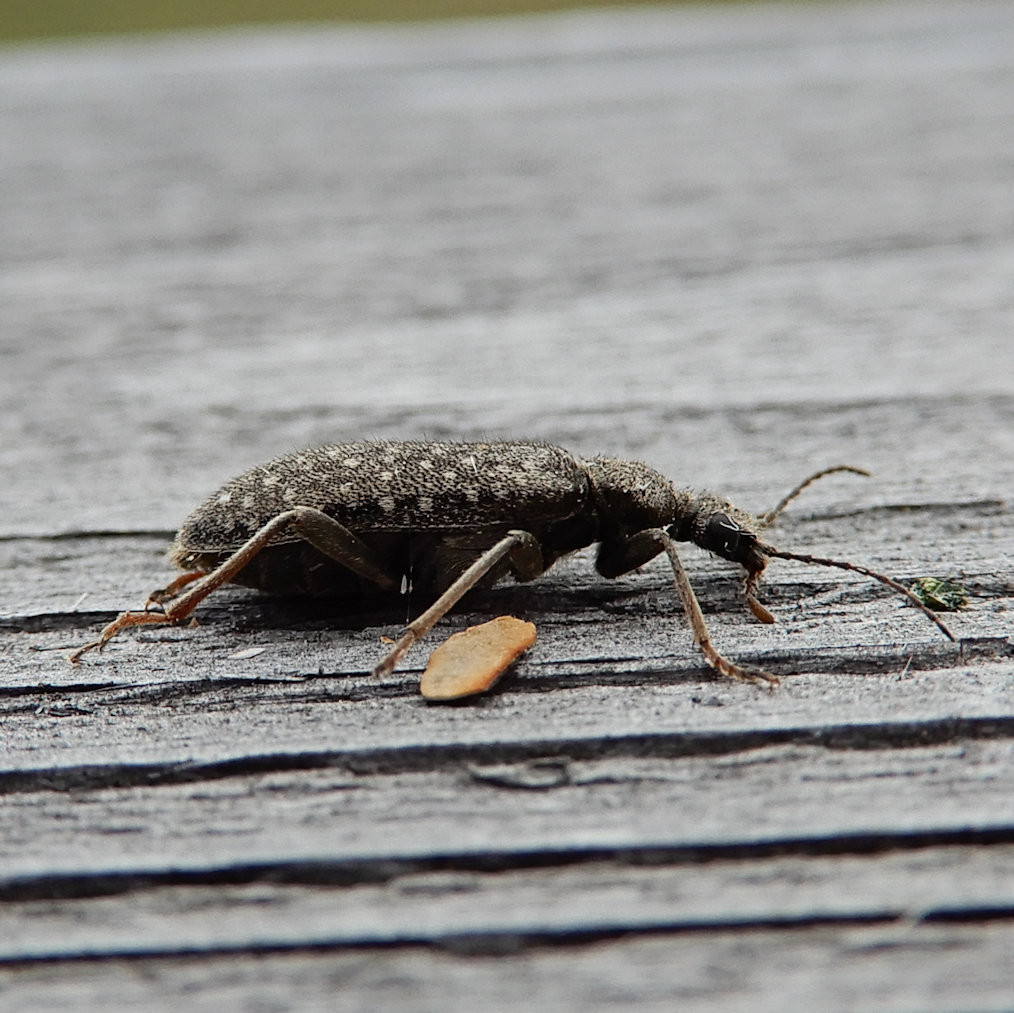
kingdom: Animalia
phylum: Arthropoda
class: Insecta
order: Coleoptera
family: Anthicidae
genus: Pergetus
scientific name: Pergetus campanulatus
